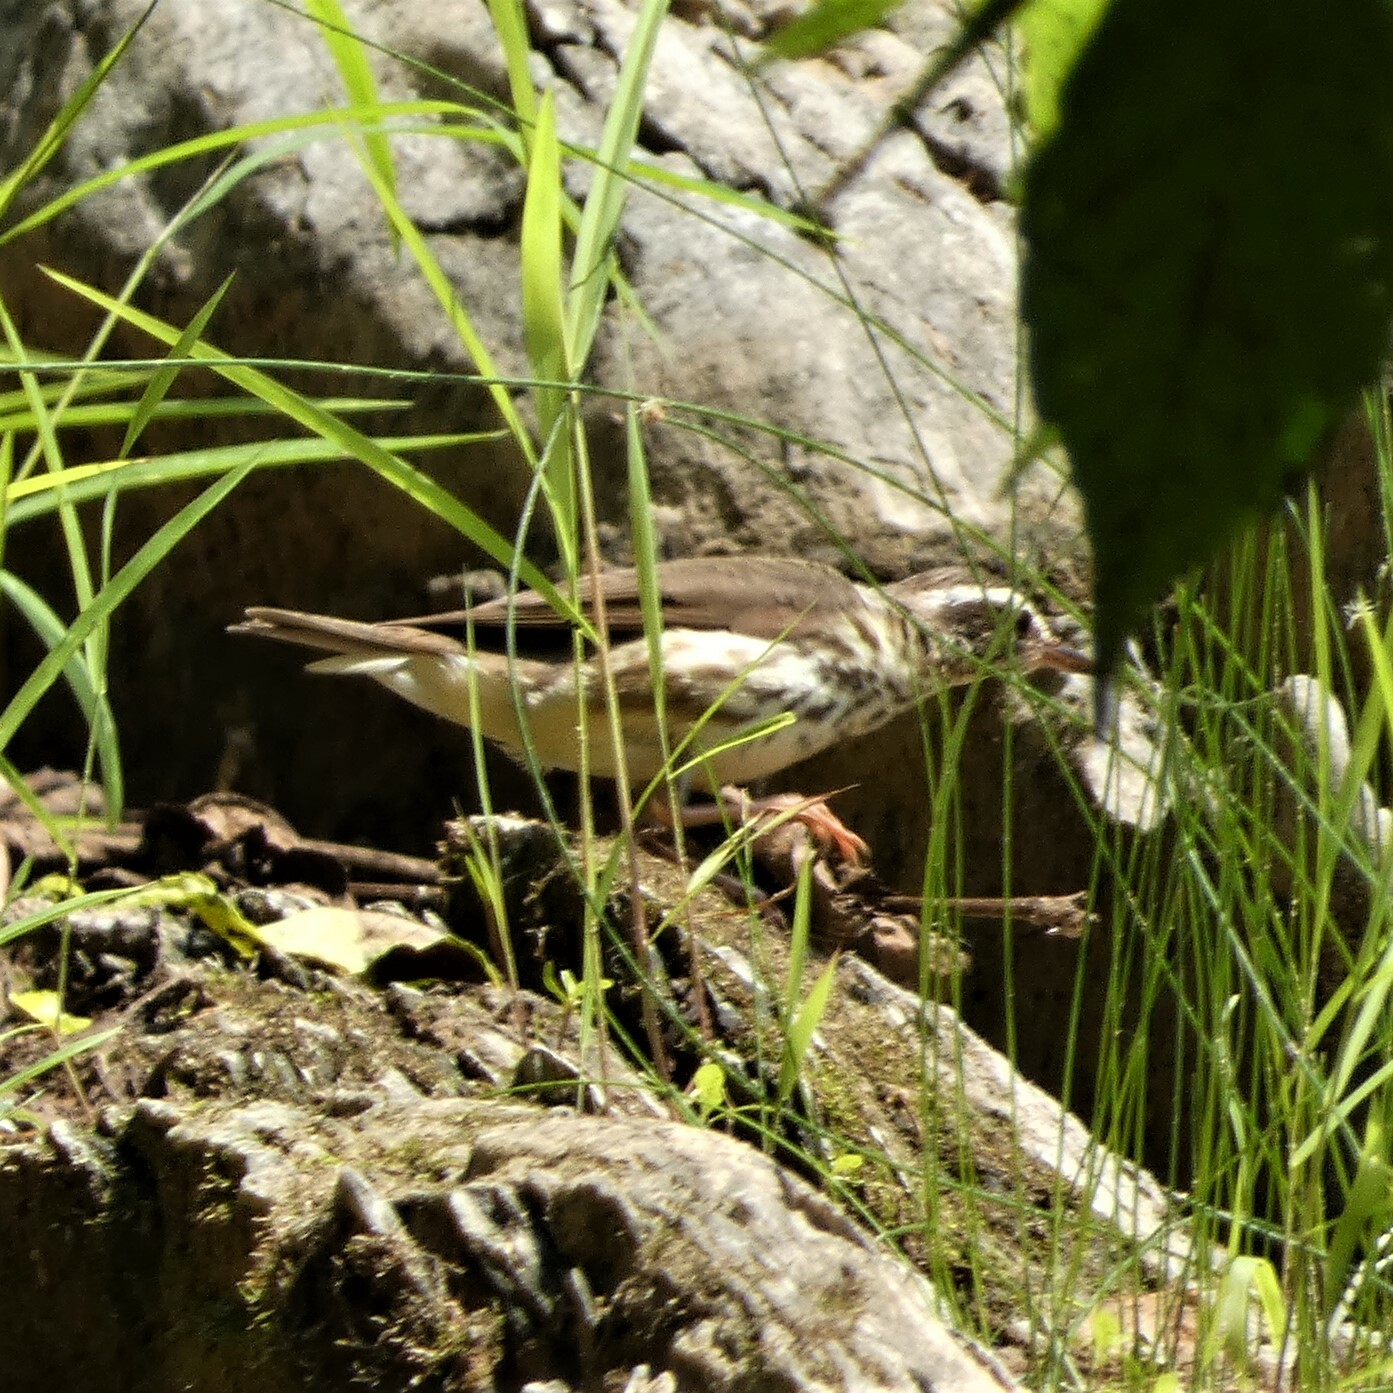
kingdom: Animalia
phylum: Chordata
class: Aves
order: Passeriformes
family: Parulidae
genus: Parkesia
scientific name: Parkesia motacilla
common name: Louisiana waterthrush
